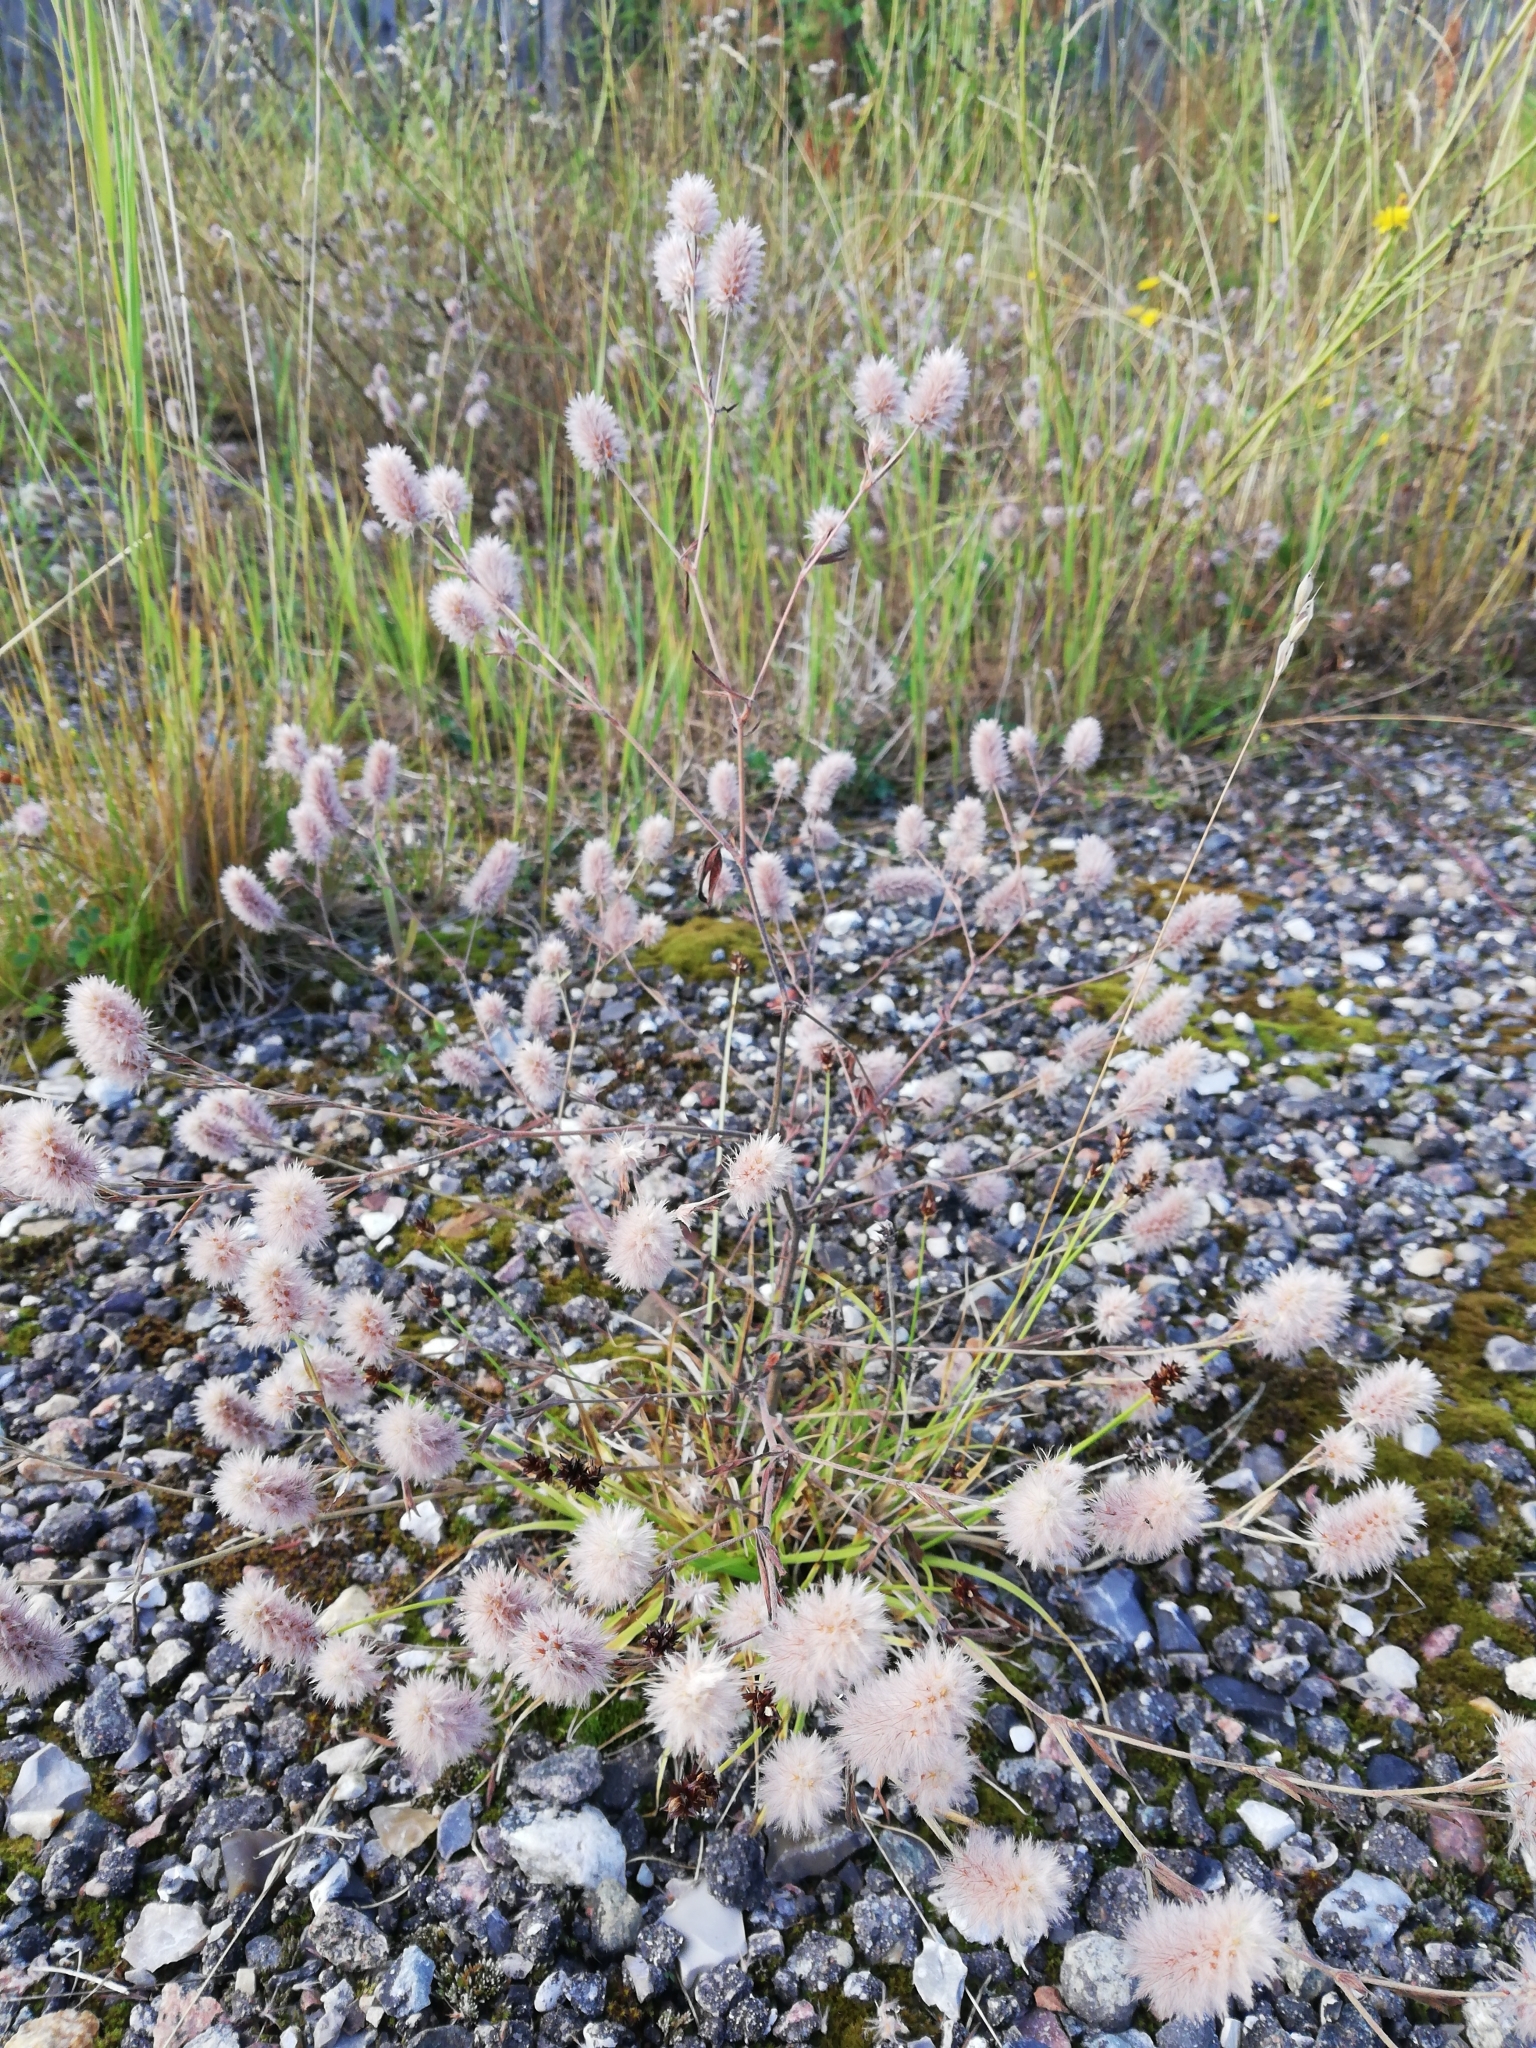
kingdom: Plantae
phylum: Tracheophyta
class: Magnoliopsida
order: Fabales
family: Fabaceae
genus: Trifolium
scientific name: Trifolium arvense
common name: Hare's-foot clover
